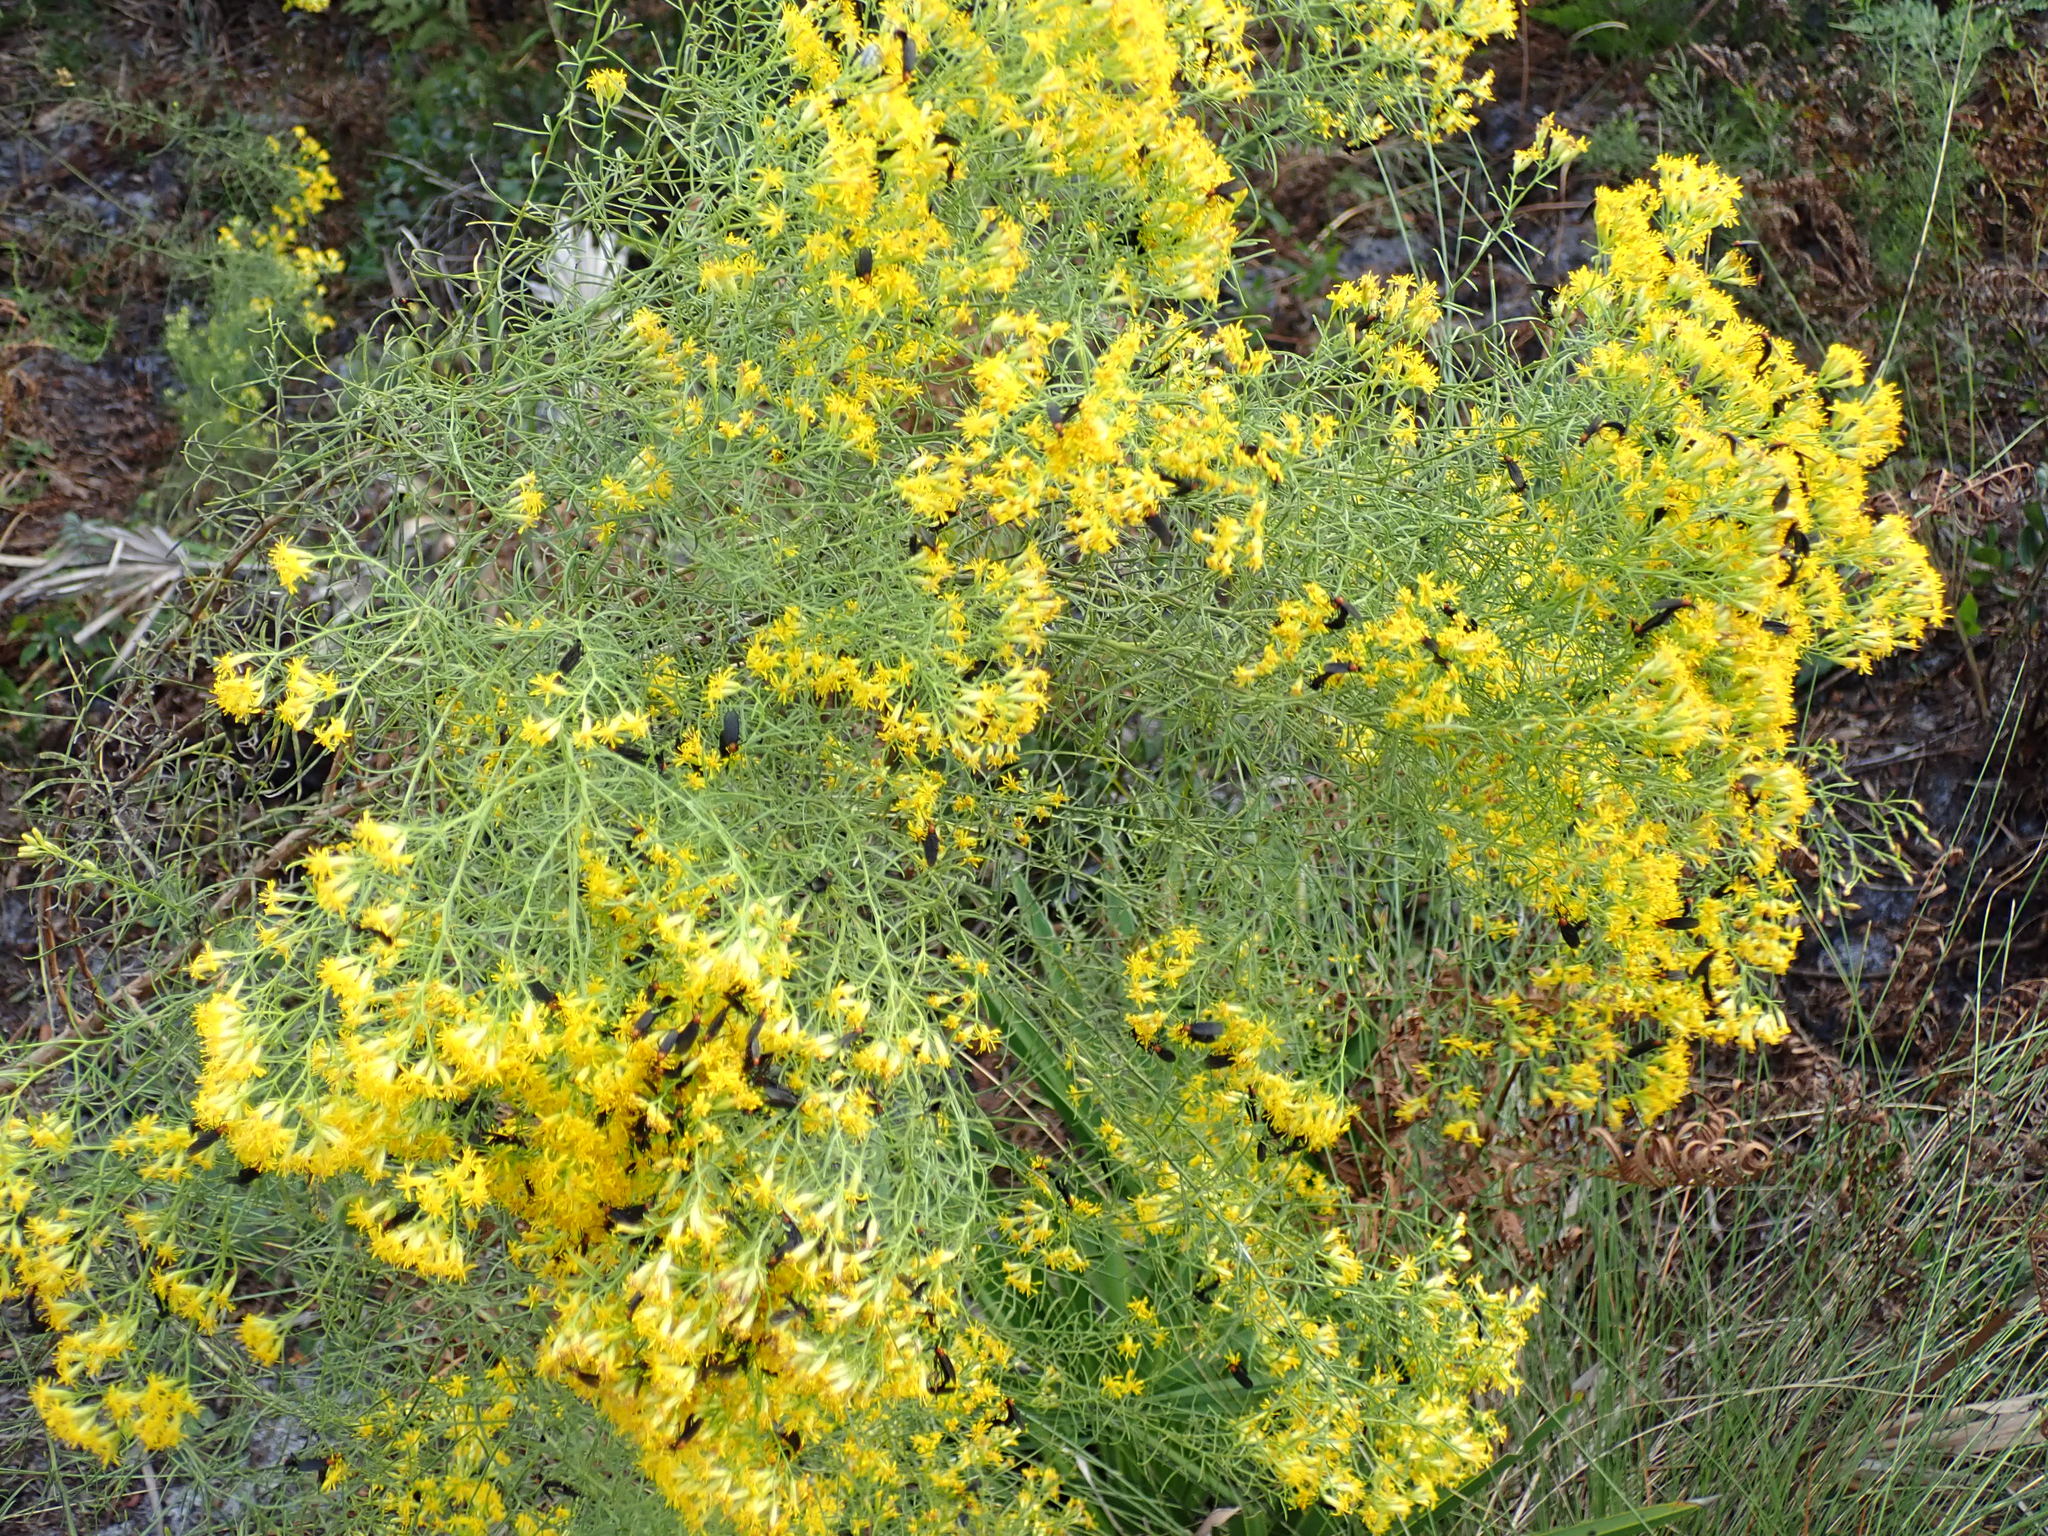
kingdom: Plantae
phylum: Tracheophyta
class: Magnoliopsida
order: Asterales
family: Asteraceae
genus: Euthamia
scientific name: Euthamia caroliniana
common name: Coastal plain goldentop
